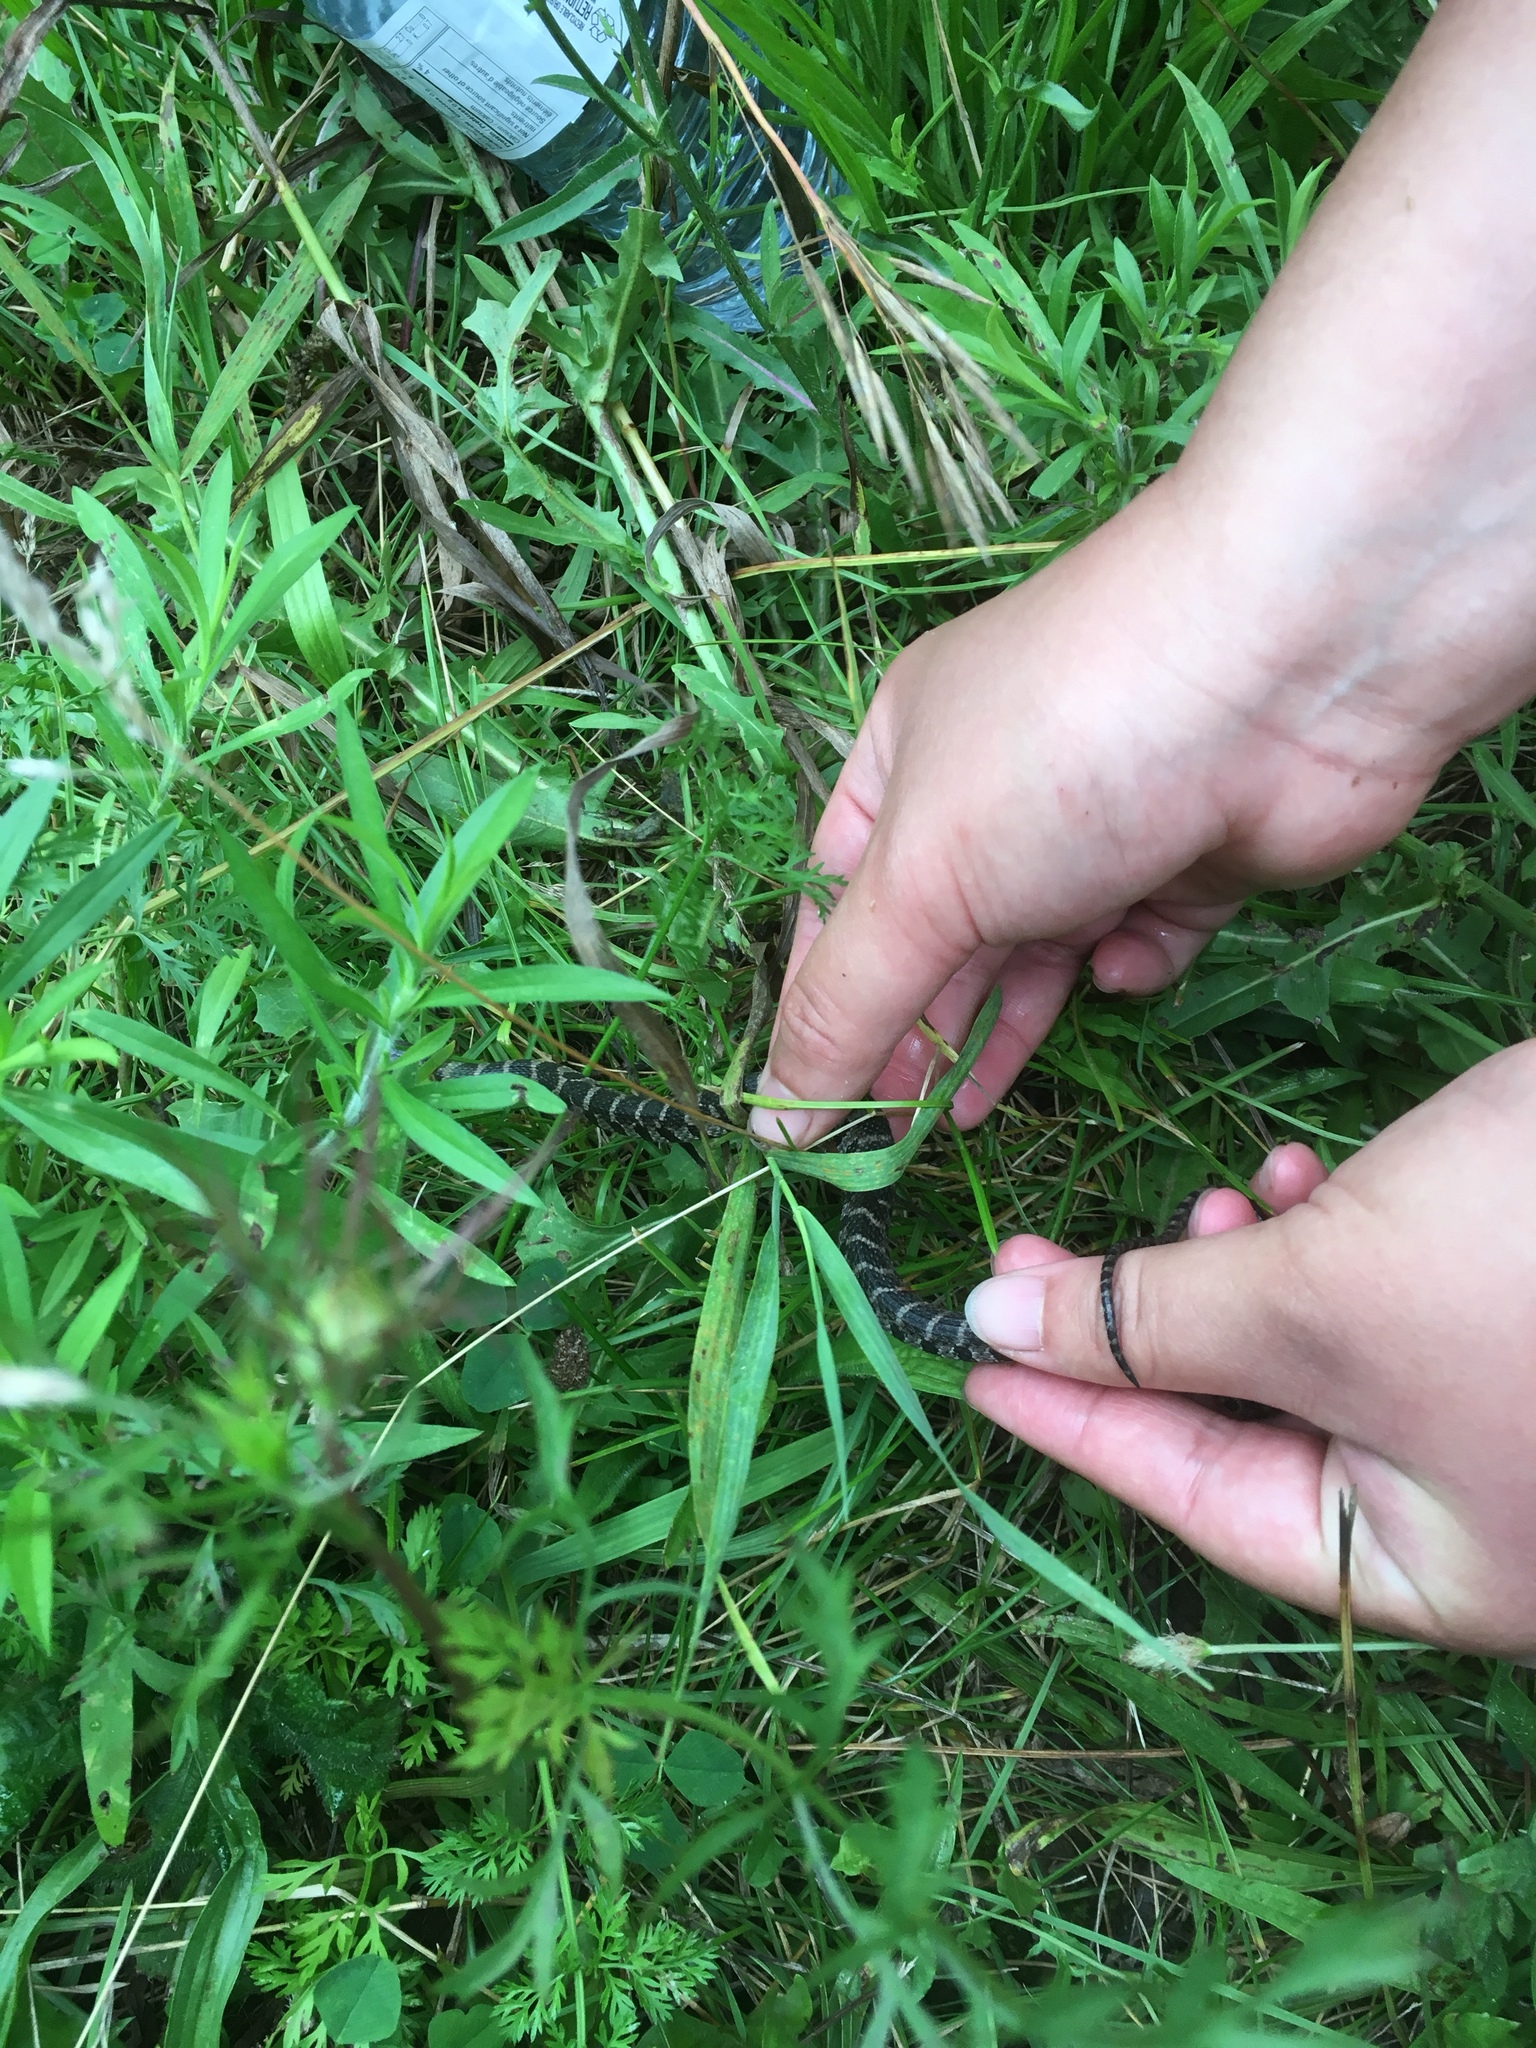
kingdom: Animalia
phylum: Chordata
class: Squamata
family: Colubridae
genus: Nerodia
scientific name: Nerodia sipedon
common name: Northern water snake
